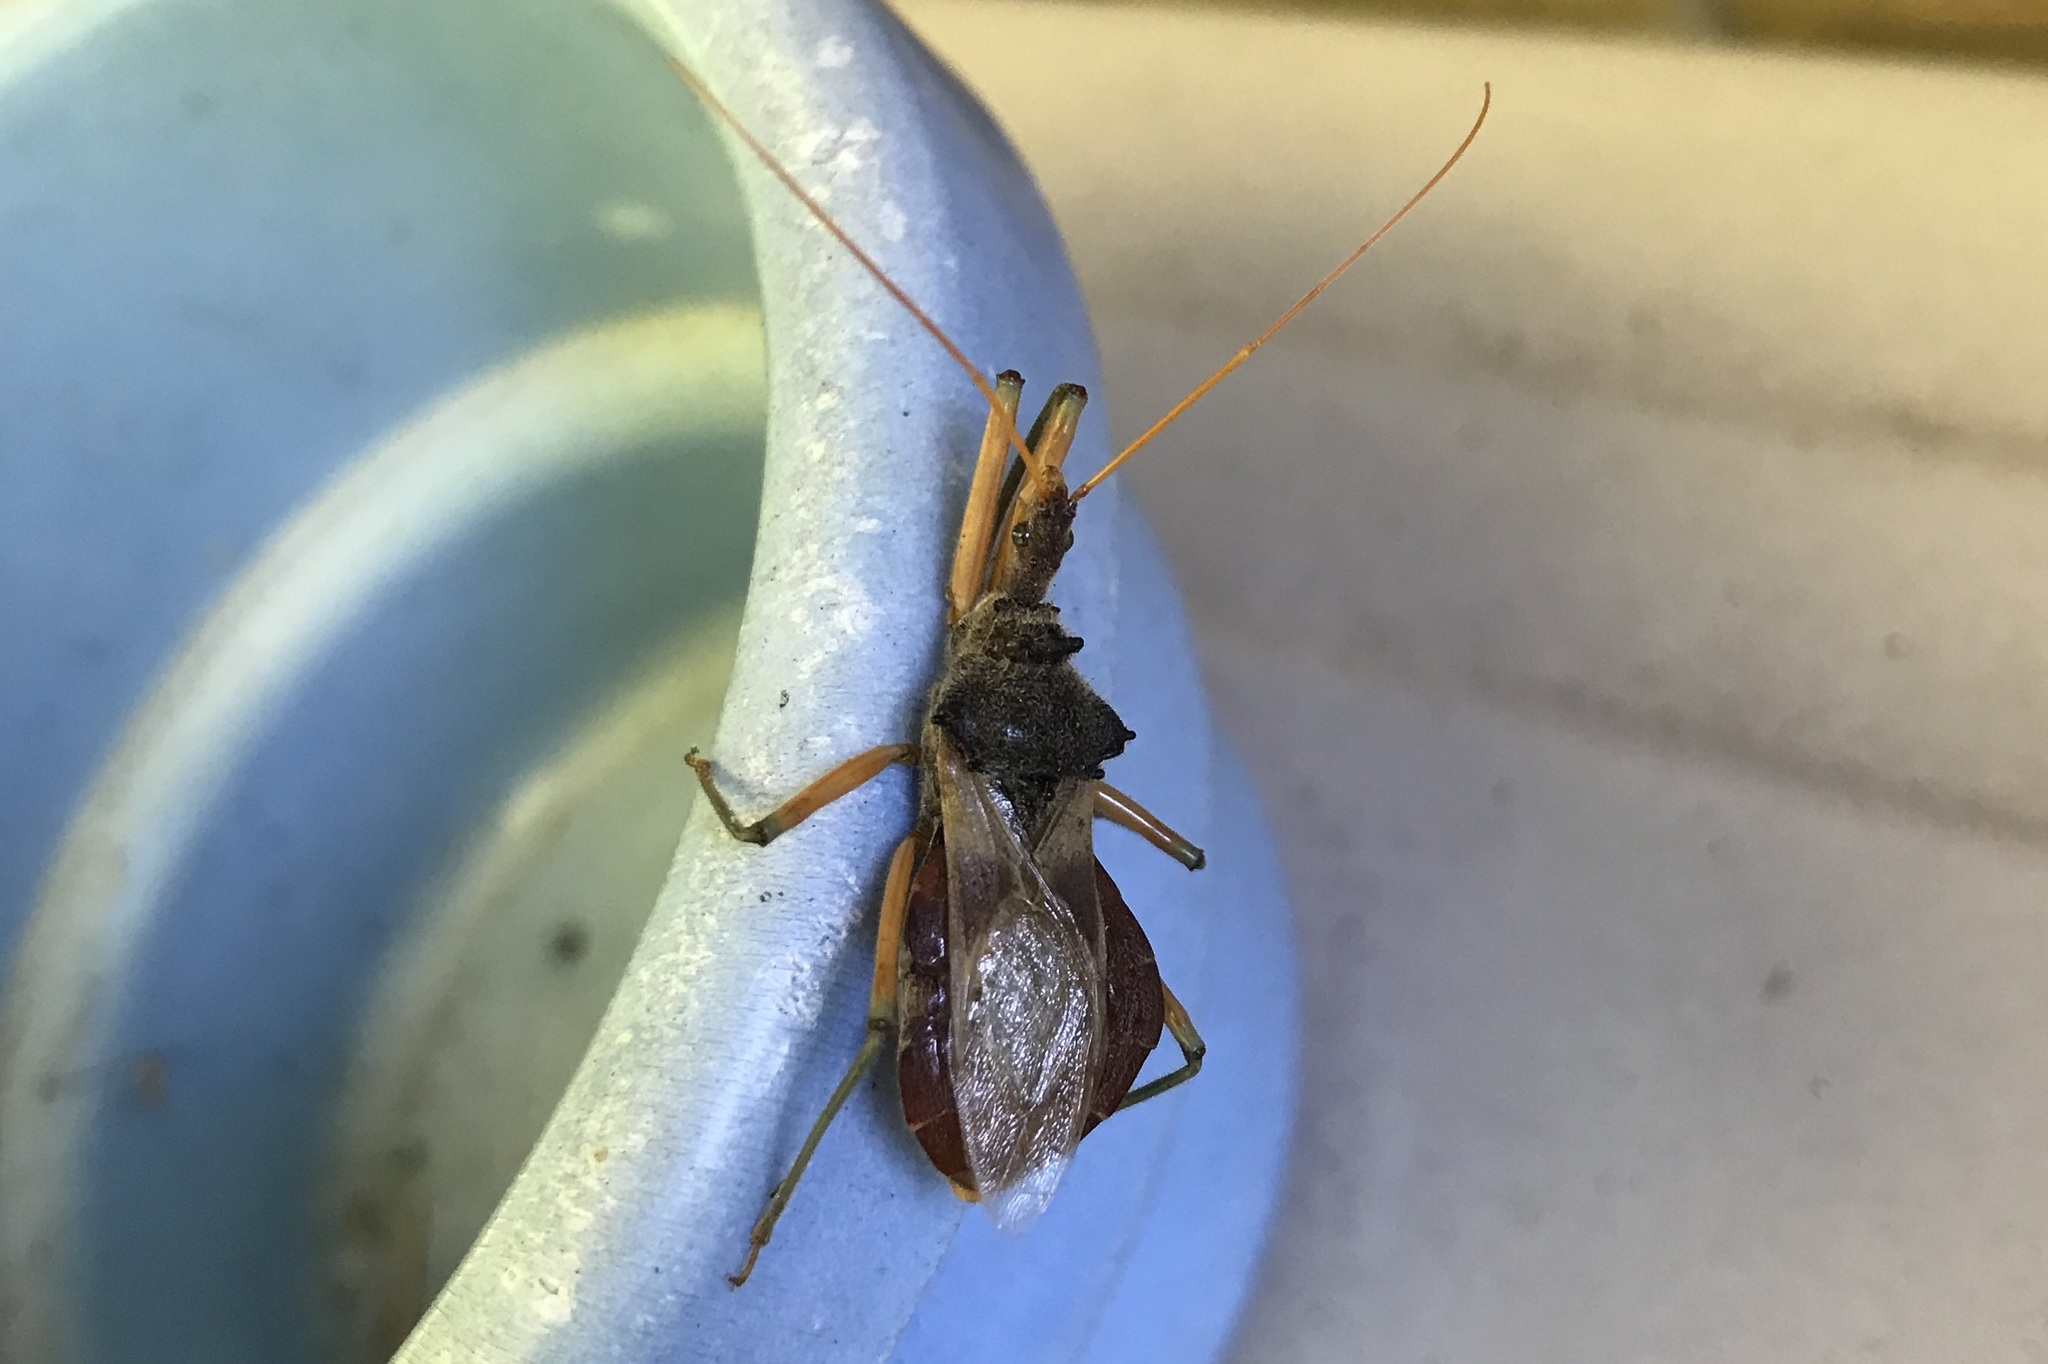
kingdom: Animalia
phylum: Arthropoda
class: Insecta
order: Hemiptera
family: Reduviidae
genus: Pristhesancus
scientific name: Pristhesancus plagipennis
